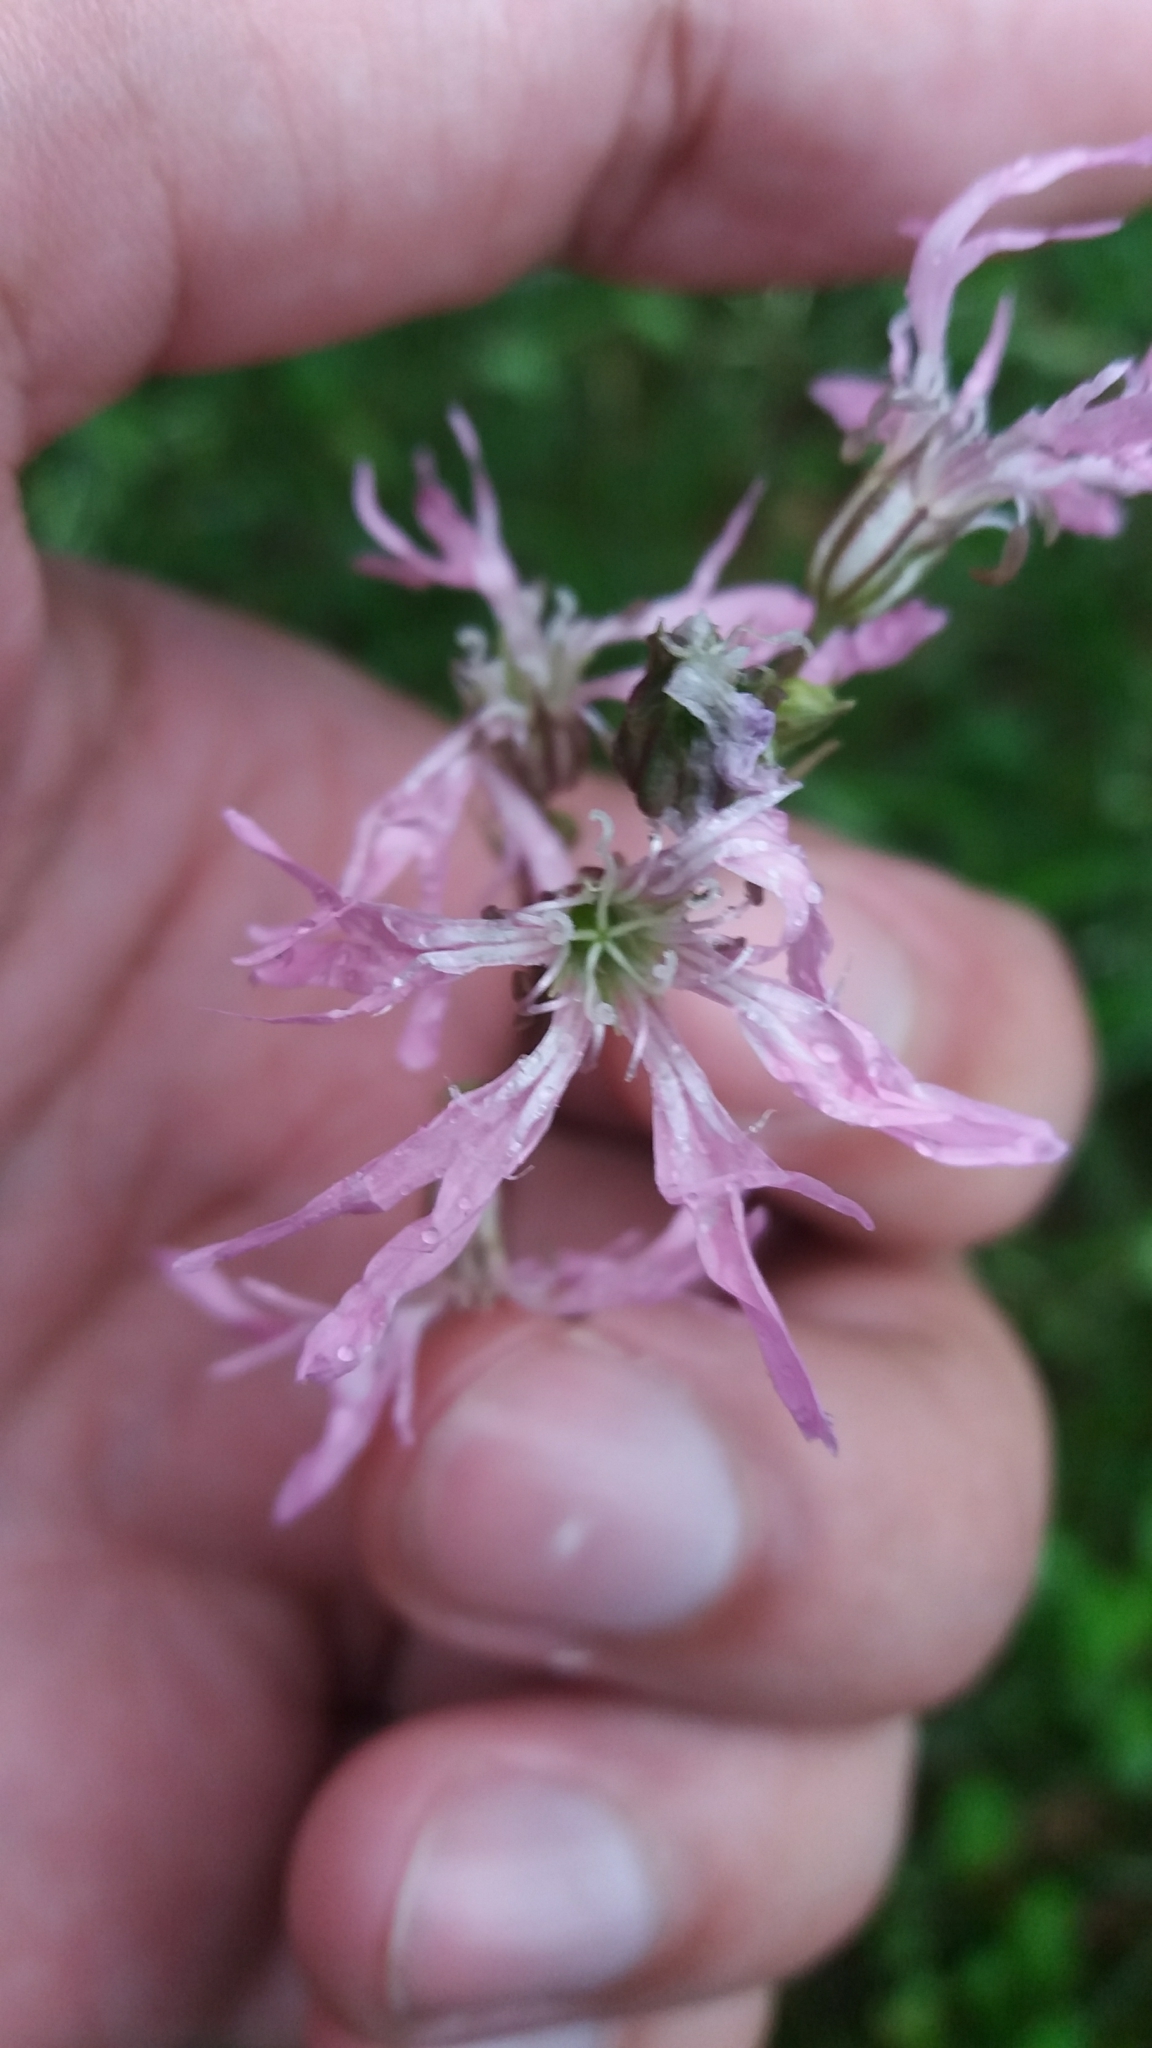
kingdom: Plantae
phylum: Tracheophyta
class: Magnoliopsida
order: Caryophyllales
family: Caryophyllaceae
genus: Silene
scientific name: Silene flos-cuculi
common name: Ragged-robin
